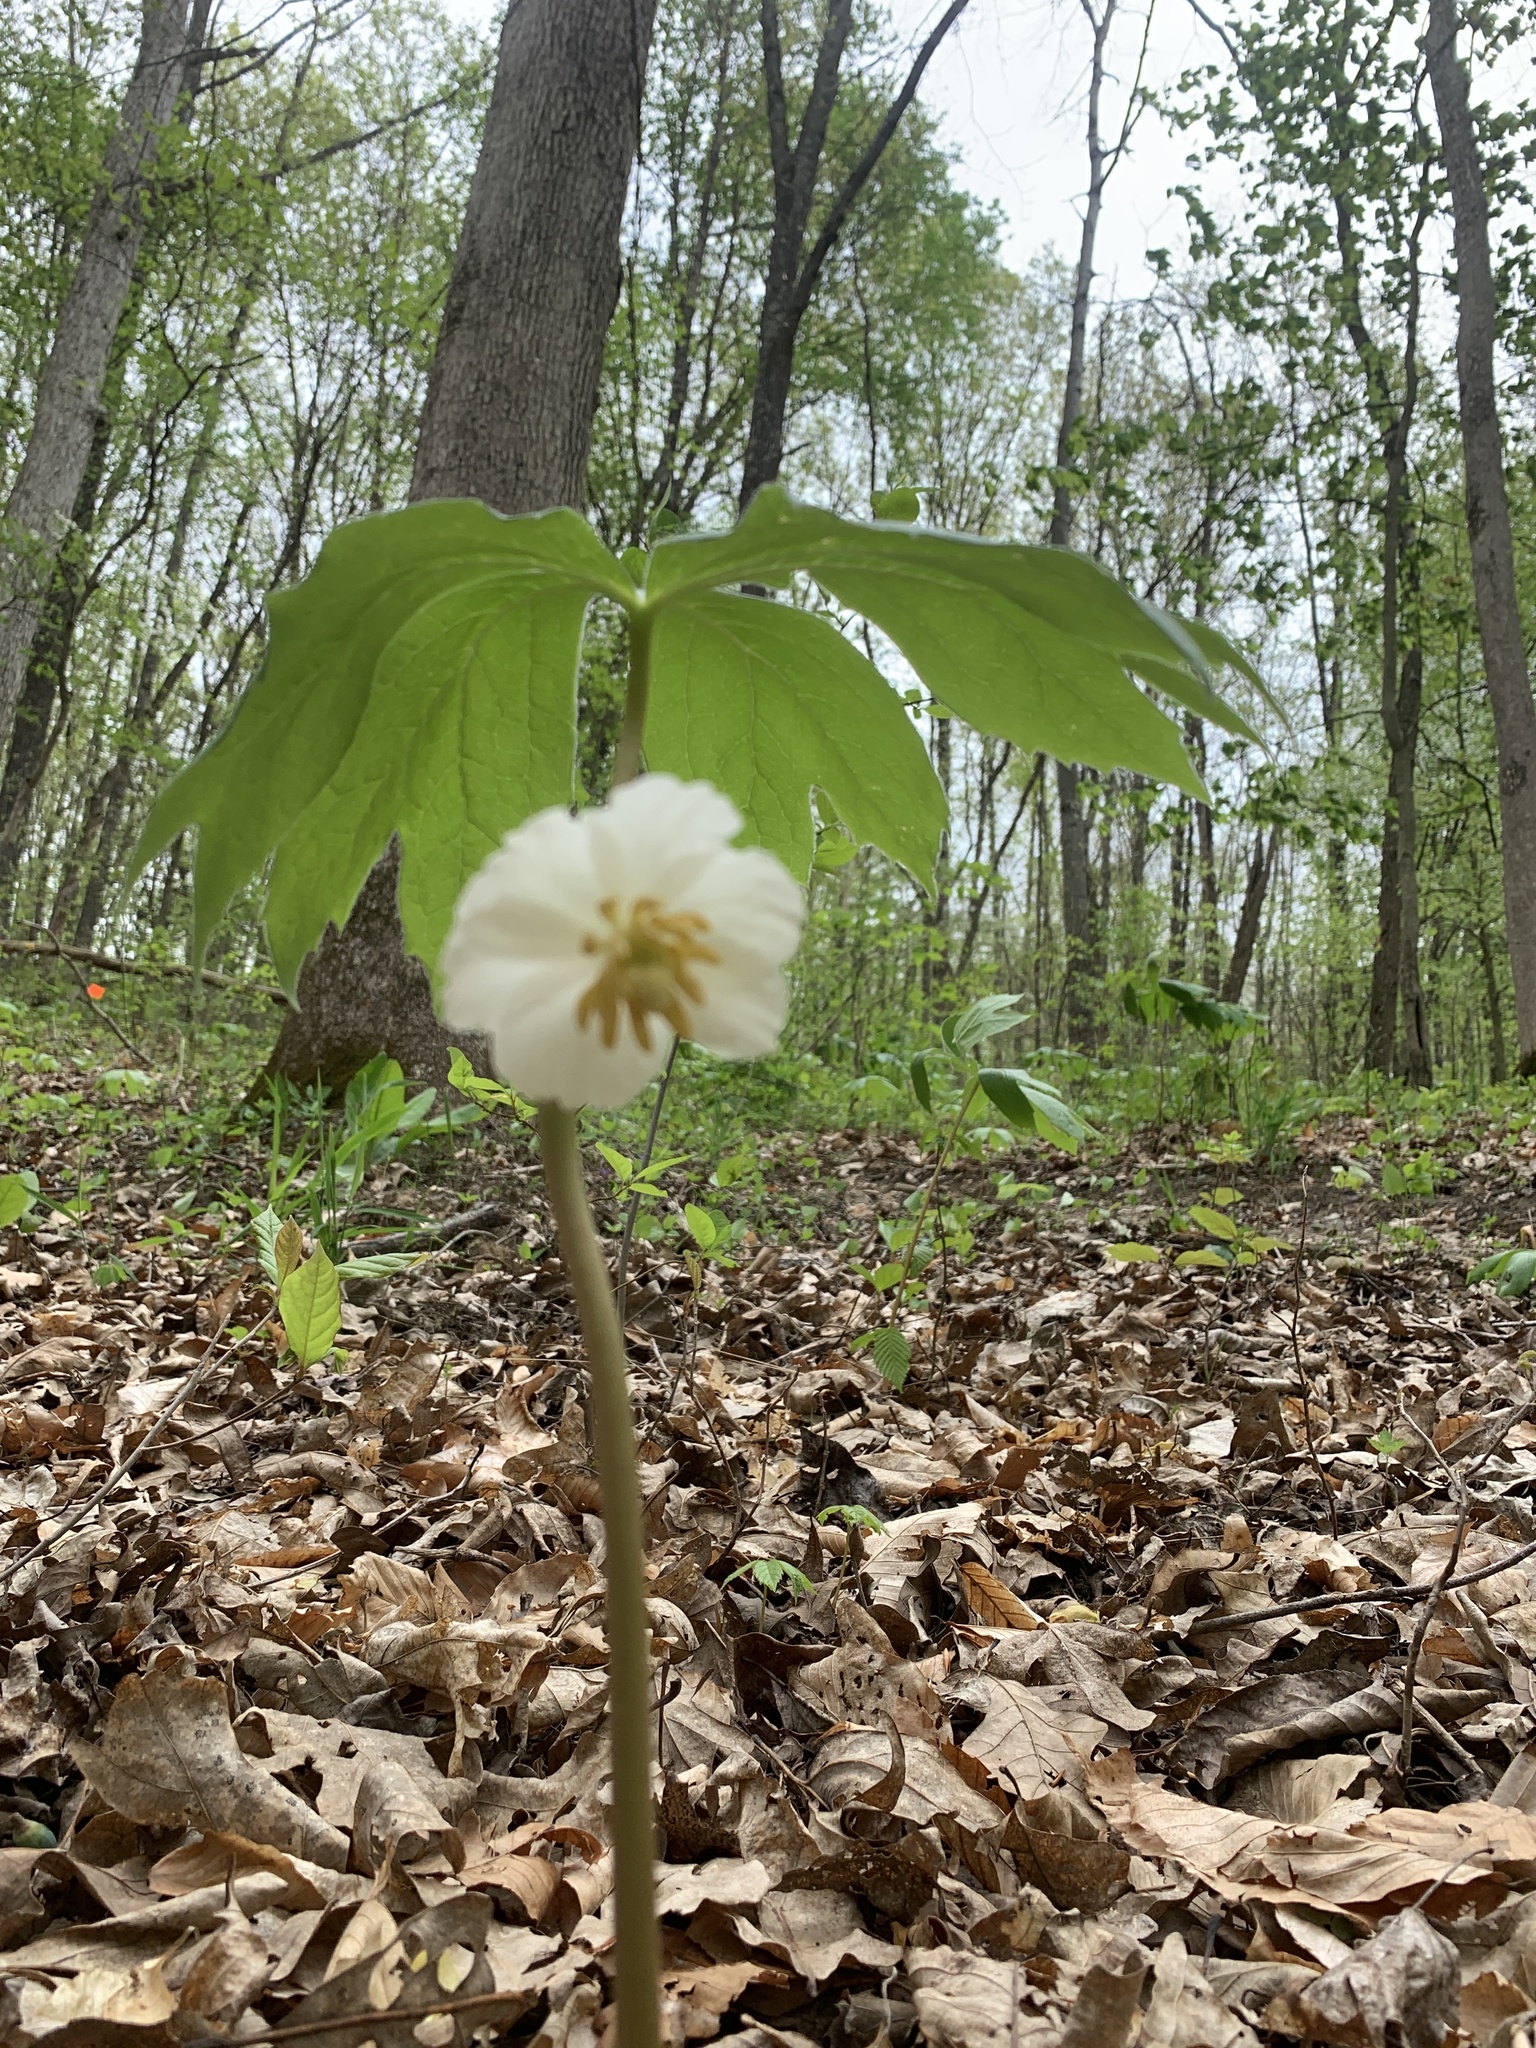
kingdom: Plantae
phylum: Tracheophyta
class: Magnoliopsida
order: Ranunculales
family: Berberidaceae
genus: Podophyllum
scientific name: Podophyllum peltatum
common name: Wild mandrake
